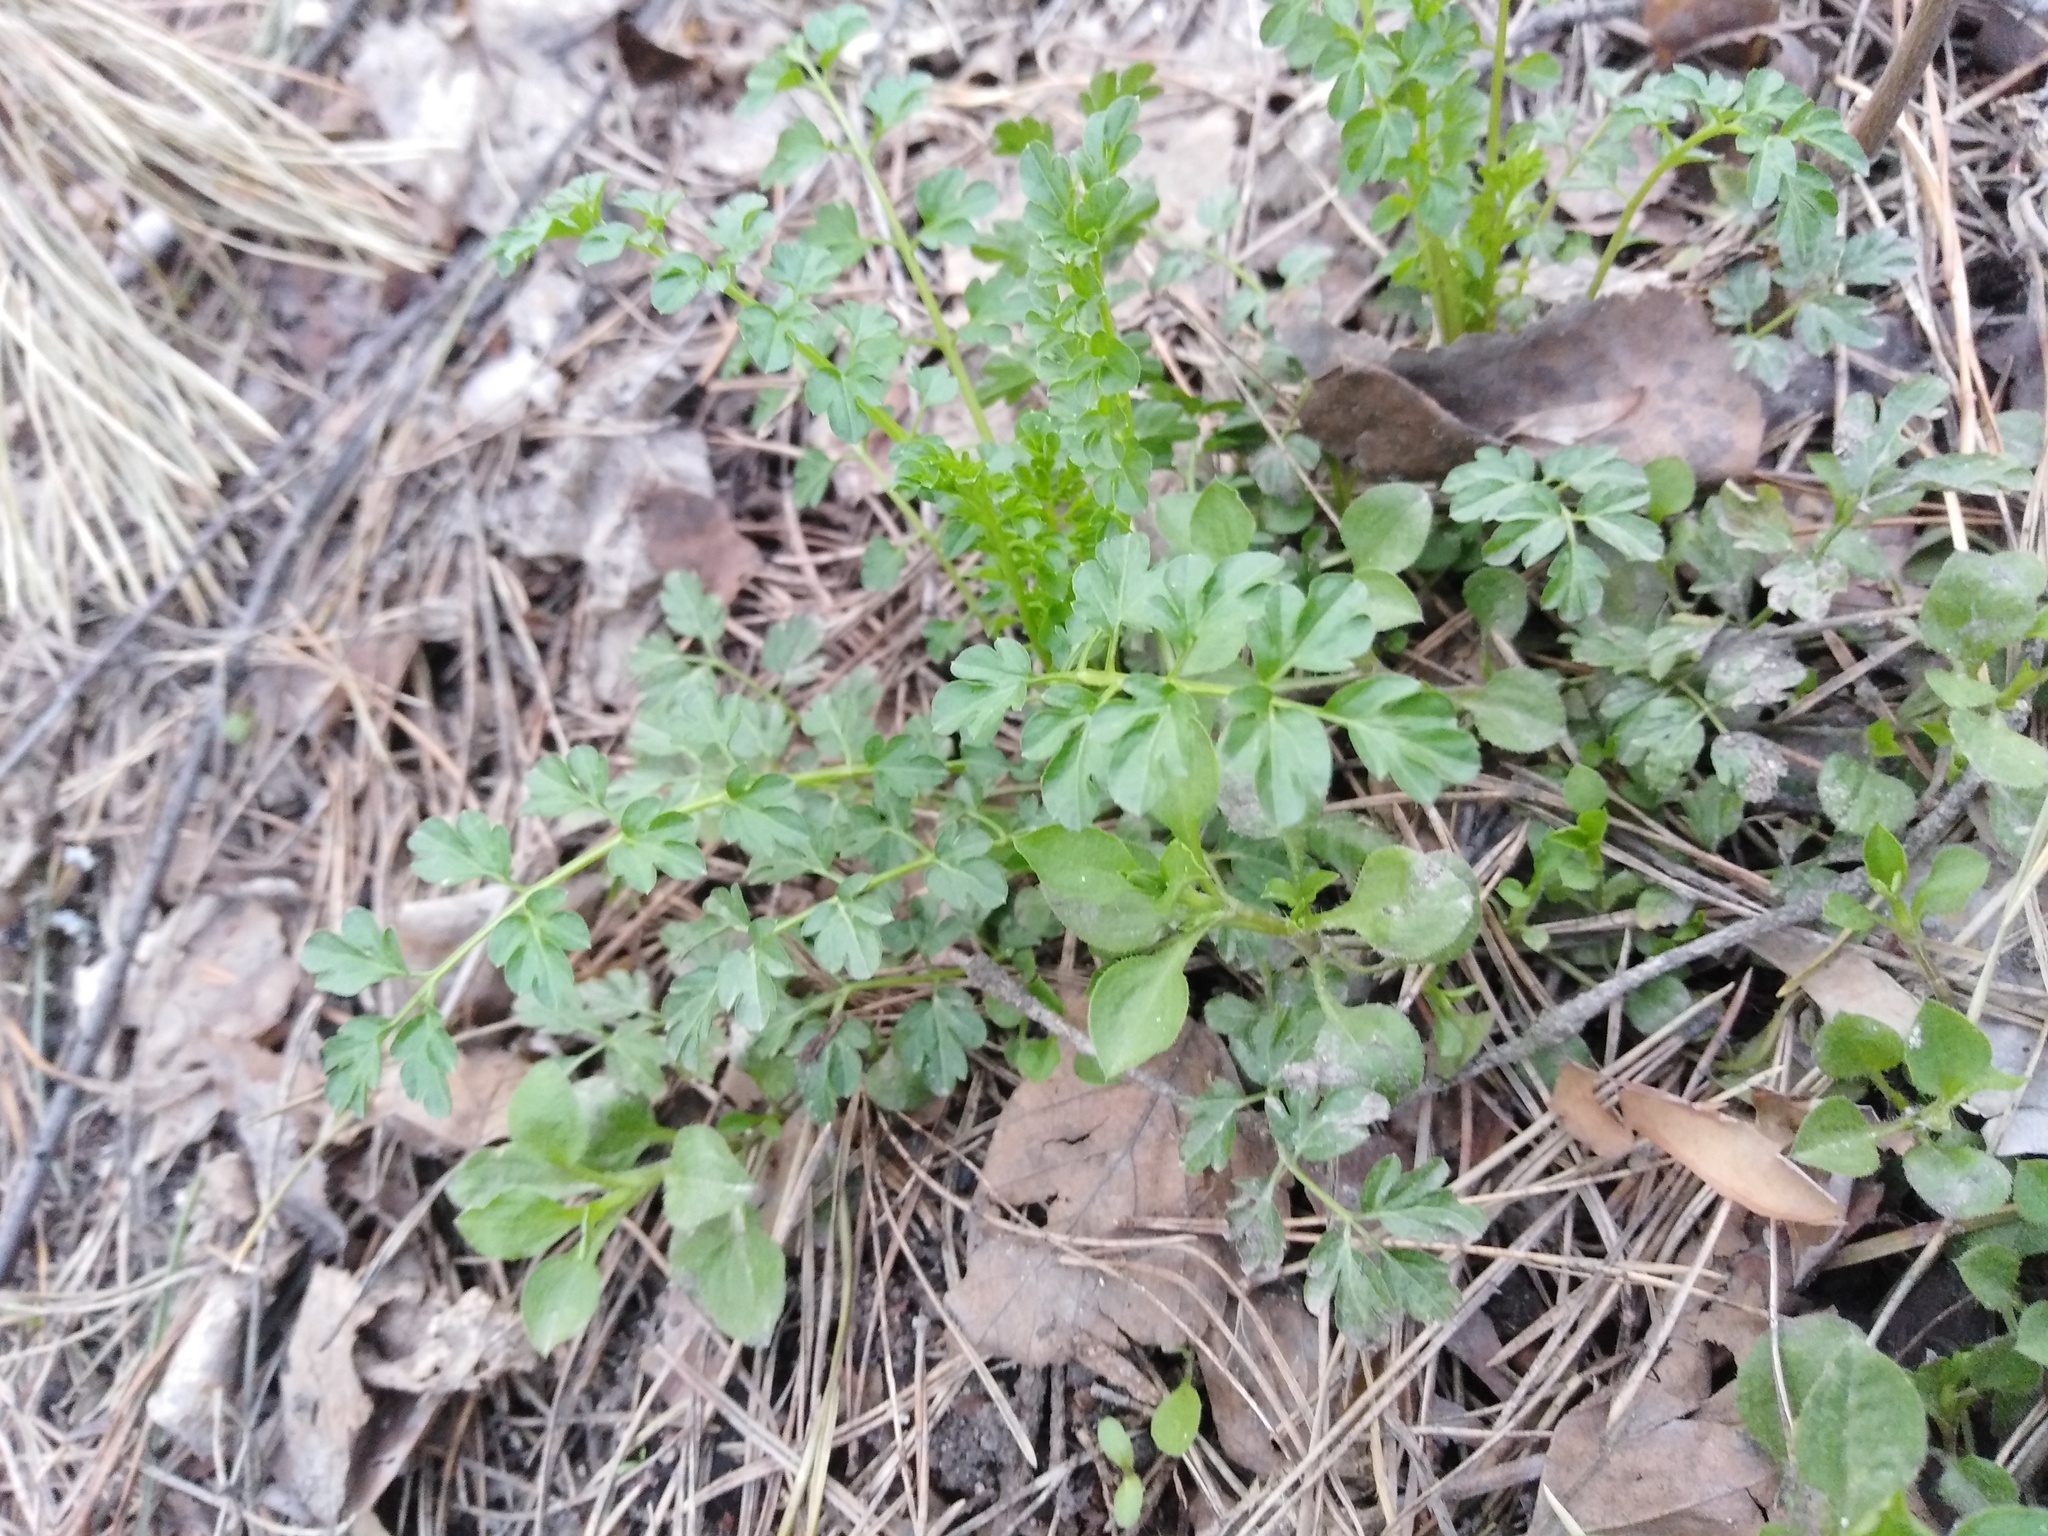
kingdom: Plantae
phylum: Tracheophyta
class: Magnoliopsida
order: Brassicales
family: Brassicaceae
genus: Cardamine
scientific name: Cardamine impatiens
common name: Narrow-leaved bitter-cress
